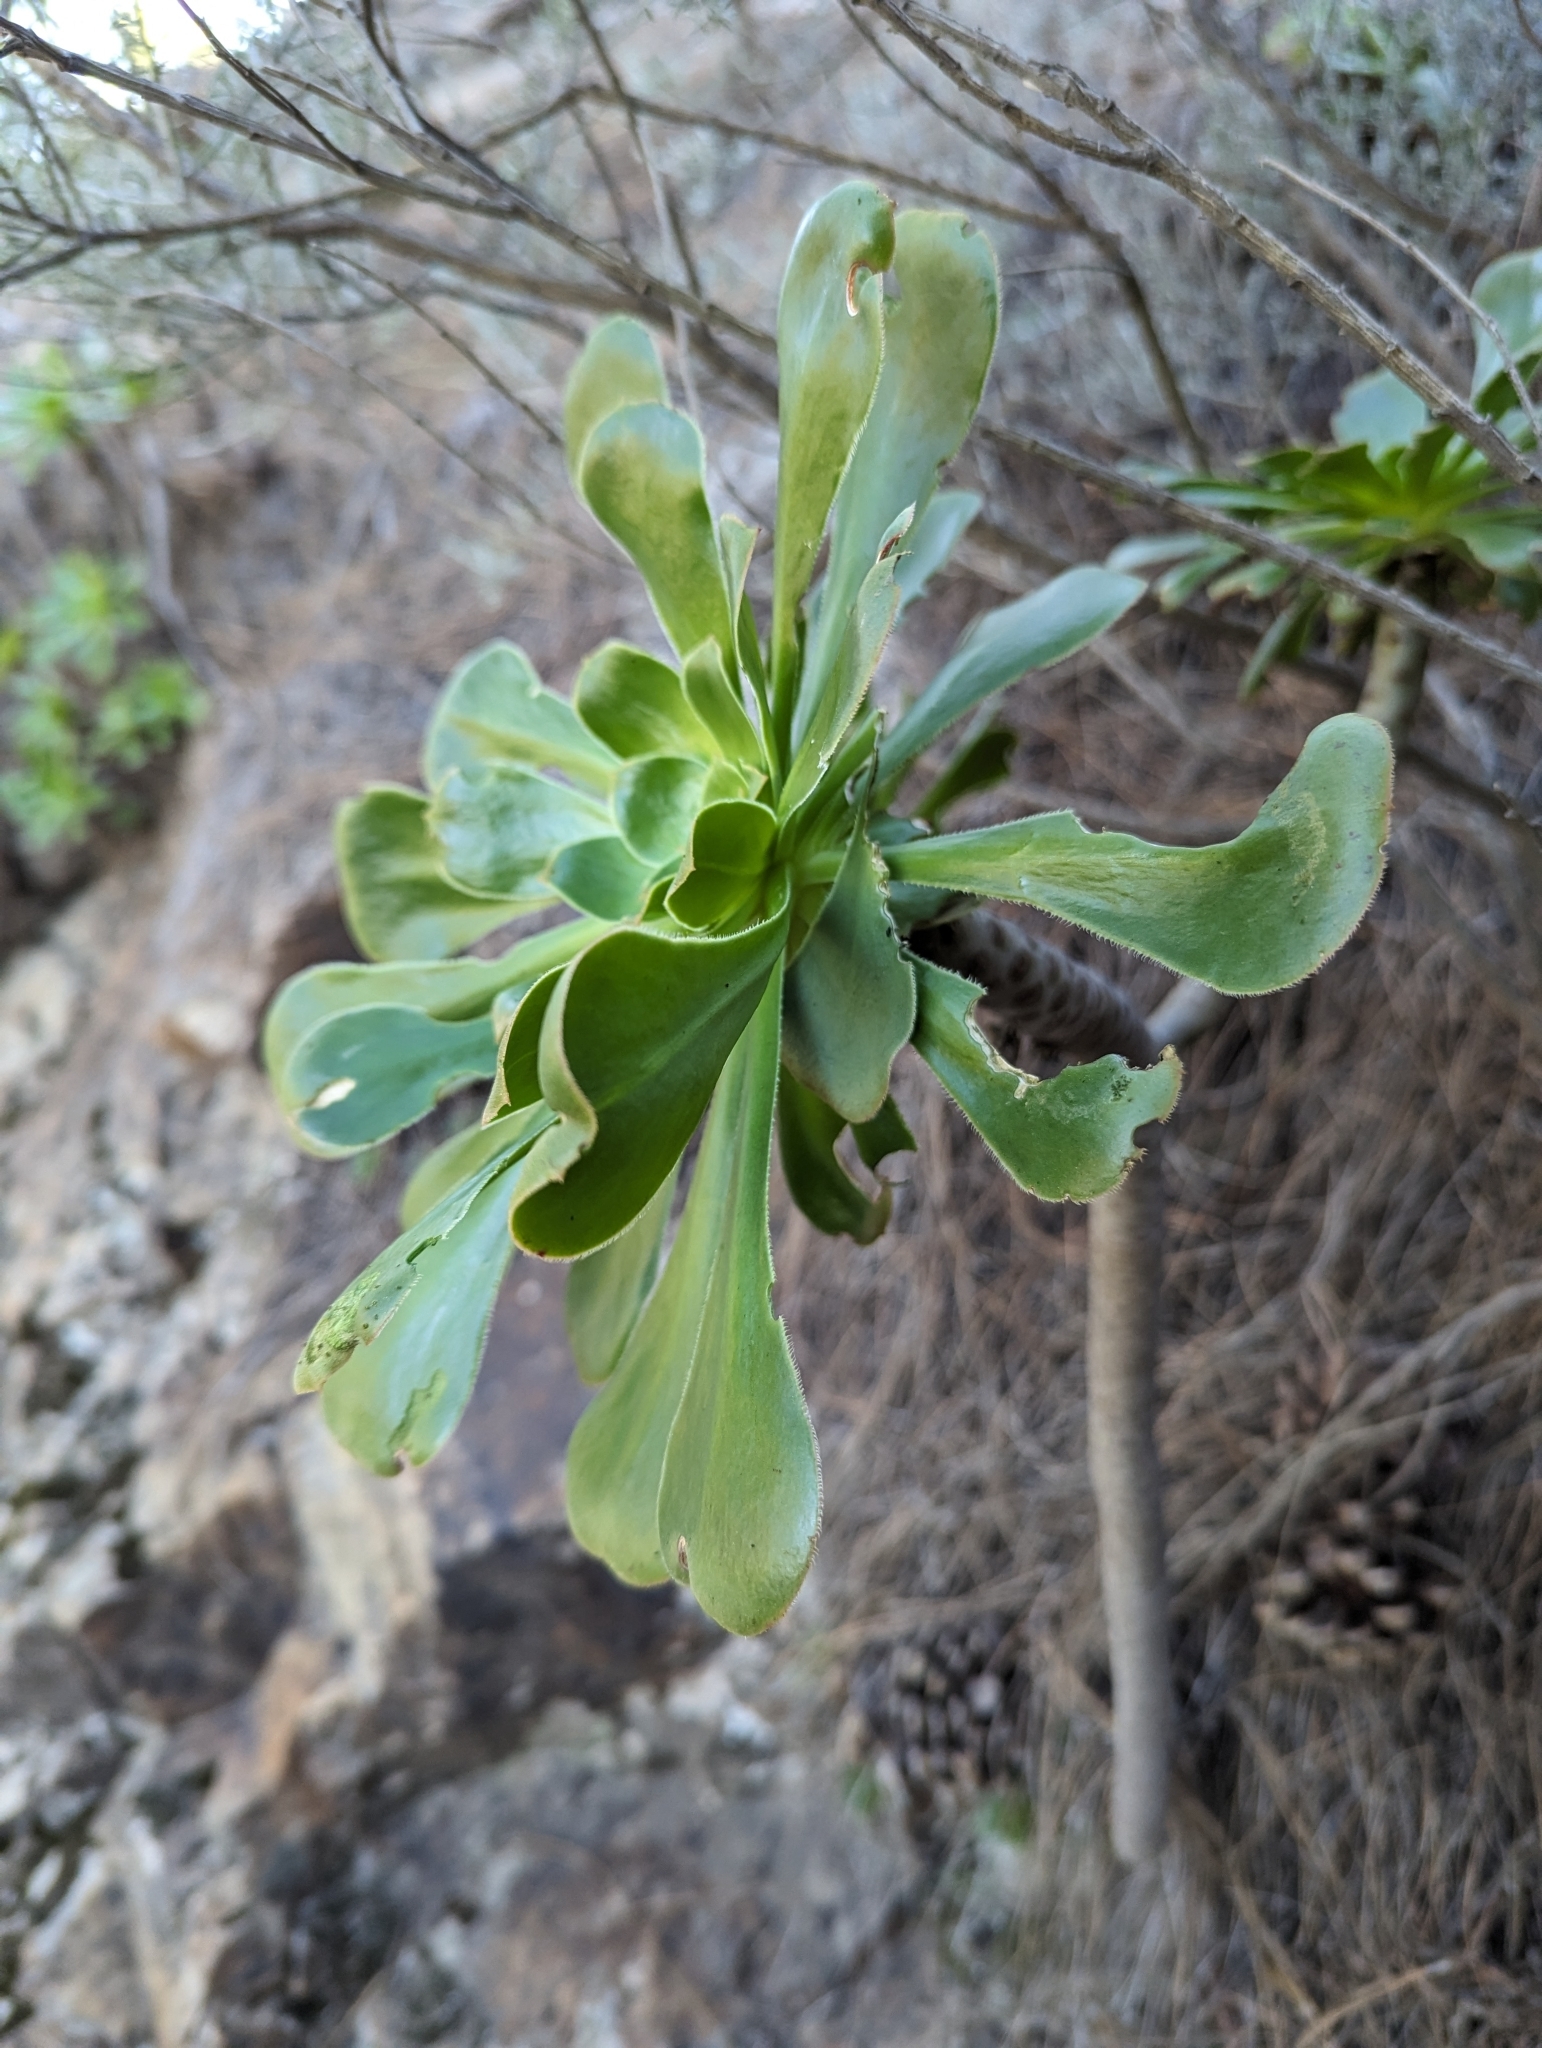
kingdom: Plantae
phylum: Tracheophyta
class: Magnoliopsida
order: Saxifragales
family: Crassulaceae
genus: Aeonium
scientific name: Aeonium arboreum
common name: Tree aeonium
